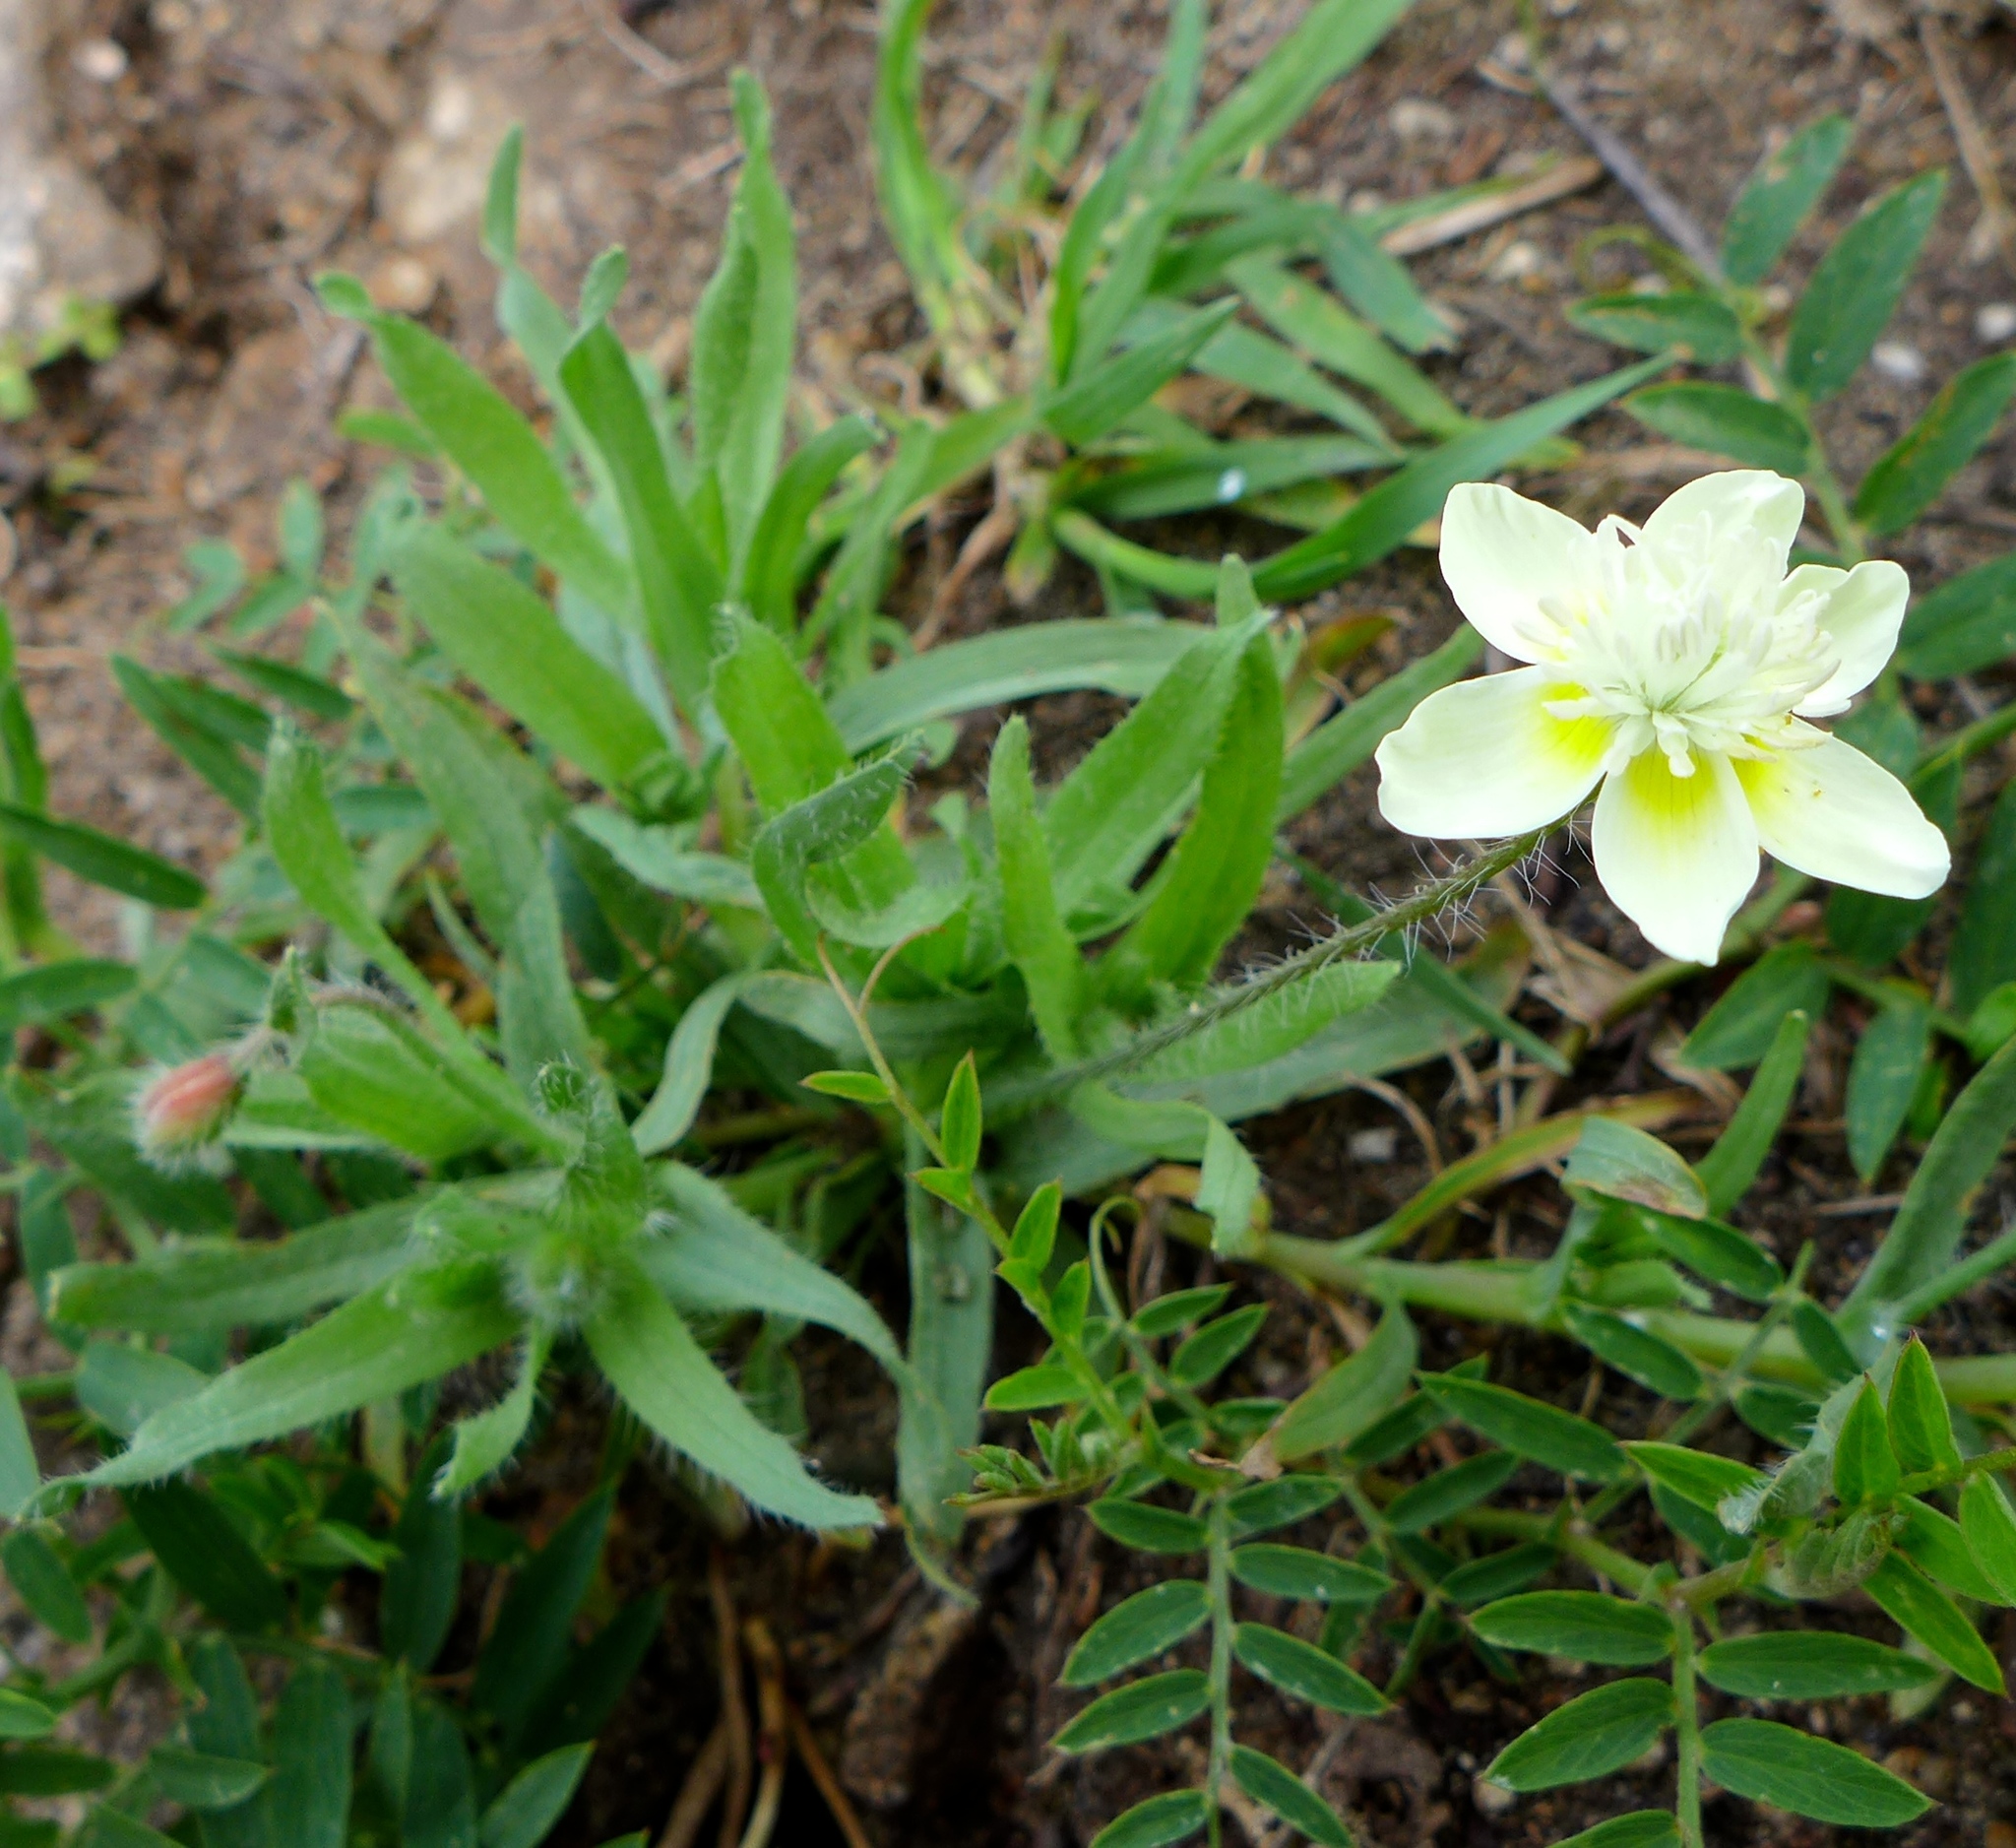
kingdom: Plantae
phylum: Tracheophyta
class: Magnoliopsida
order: Ranunculales
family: Papaveraceae
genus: Platystemon
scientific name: Platystemon californicus
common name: Cream-cups
